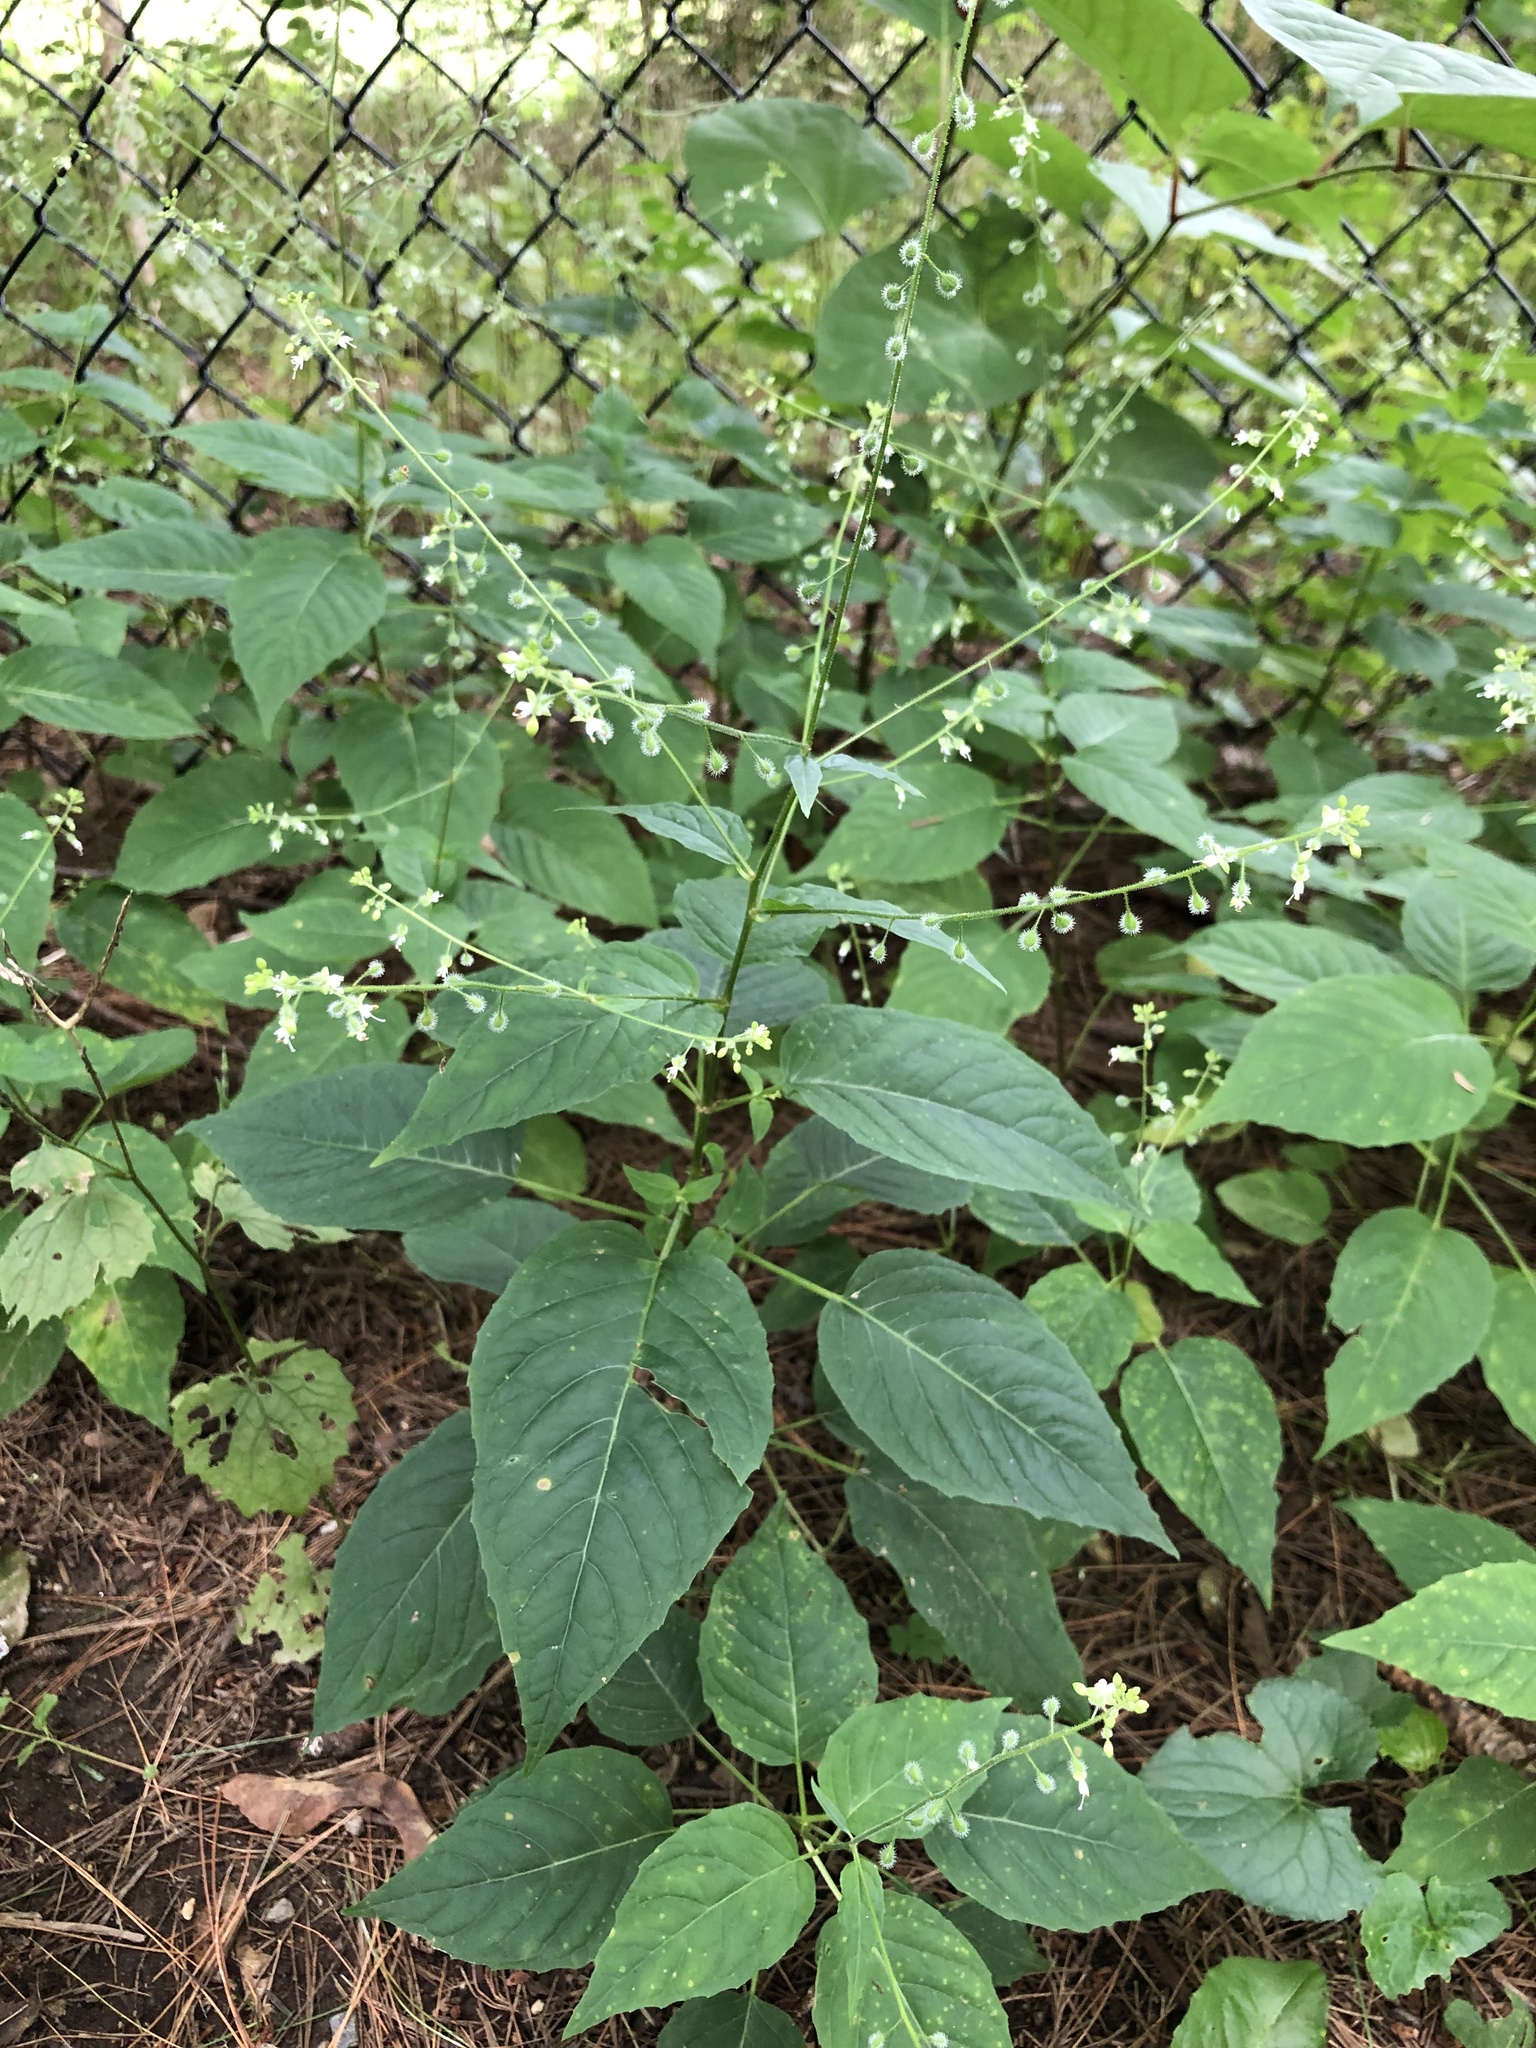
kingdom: Plantae
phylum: Tracheophyta
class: Magnoliopsida
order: Myrtales
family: Onagraceae
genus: Circaea
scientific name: Circaea canadensis
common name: Broad-leaved enchanter's nightshade
